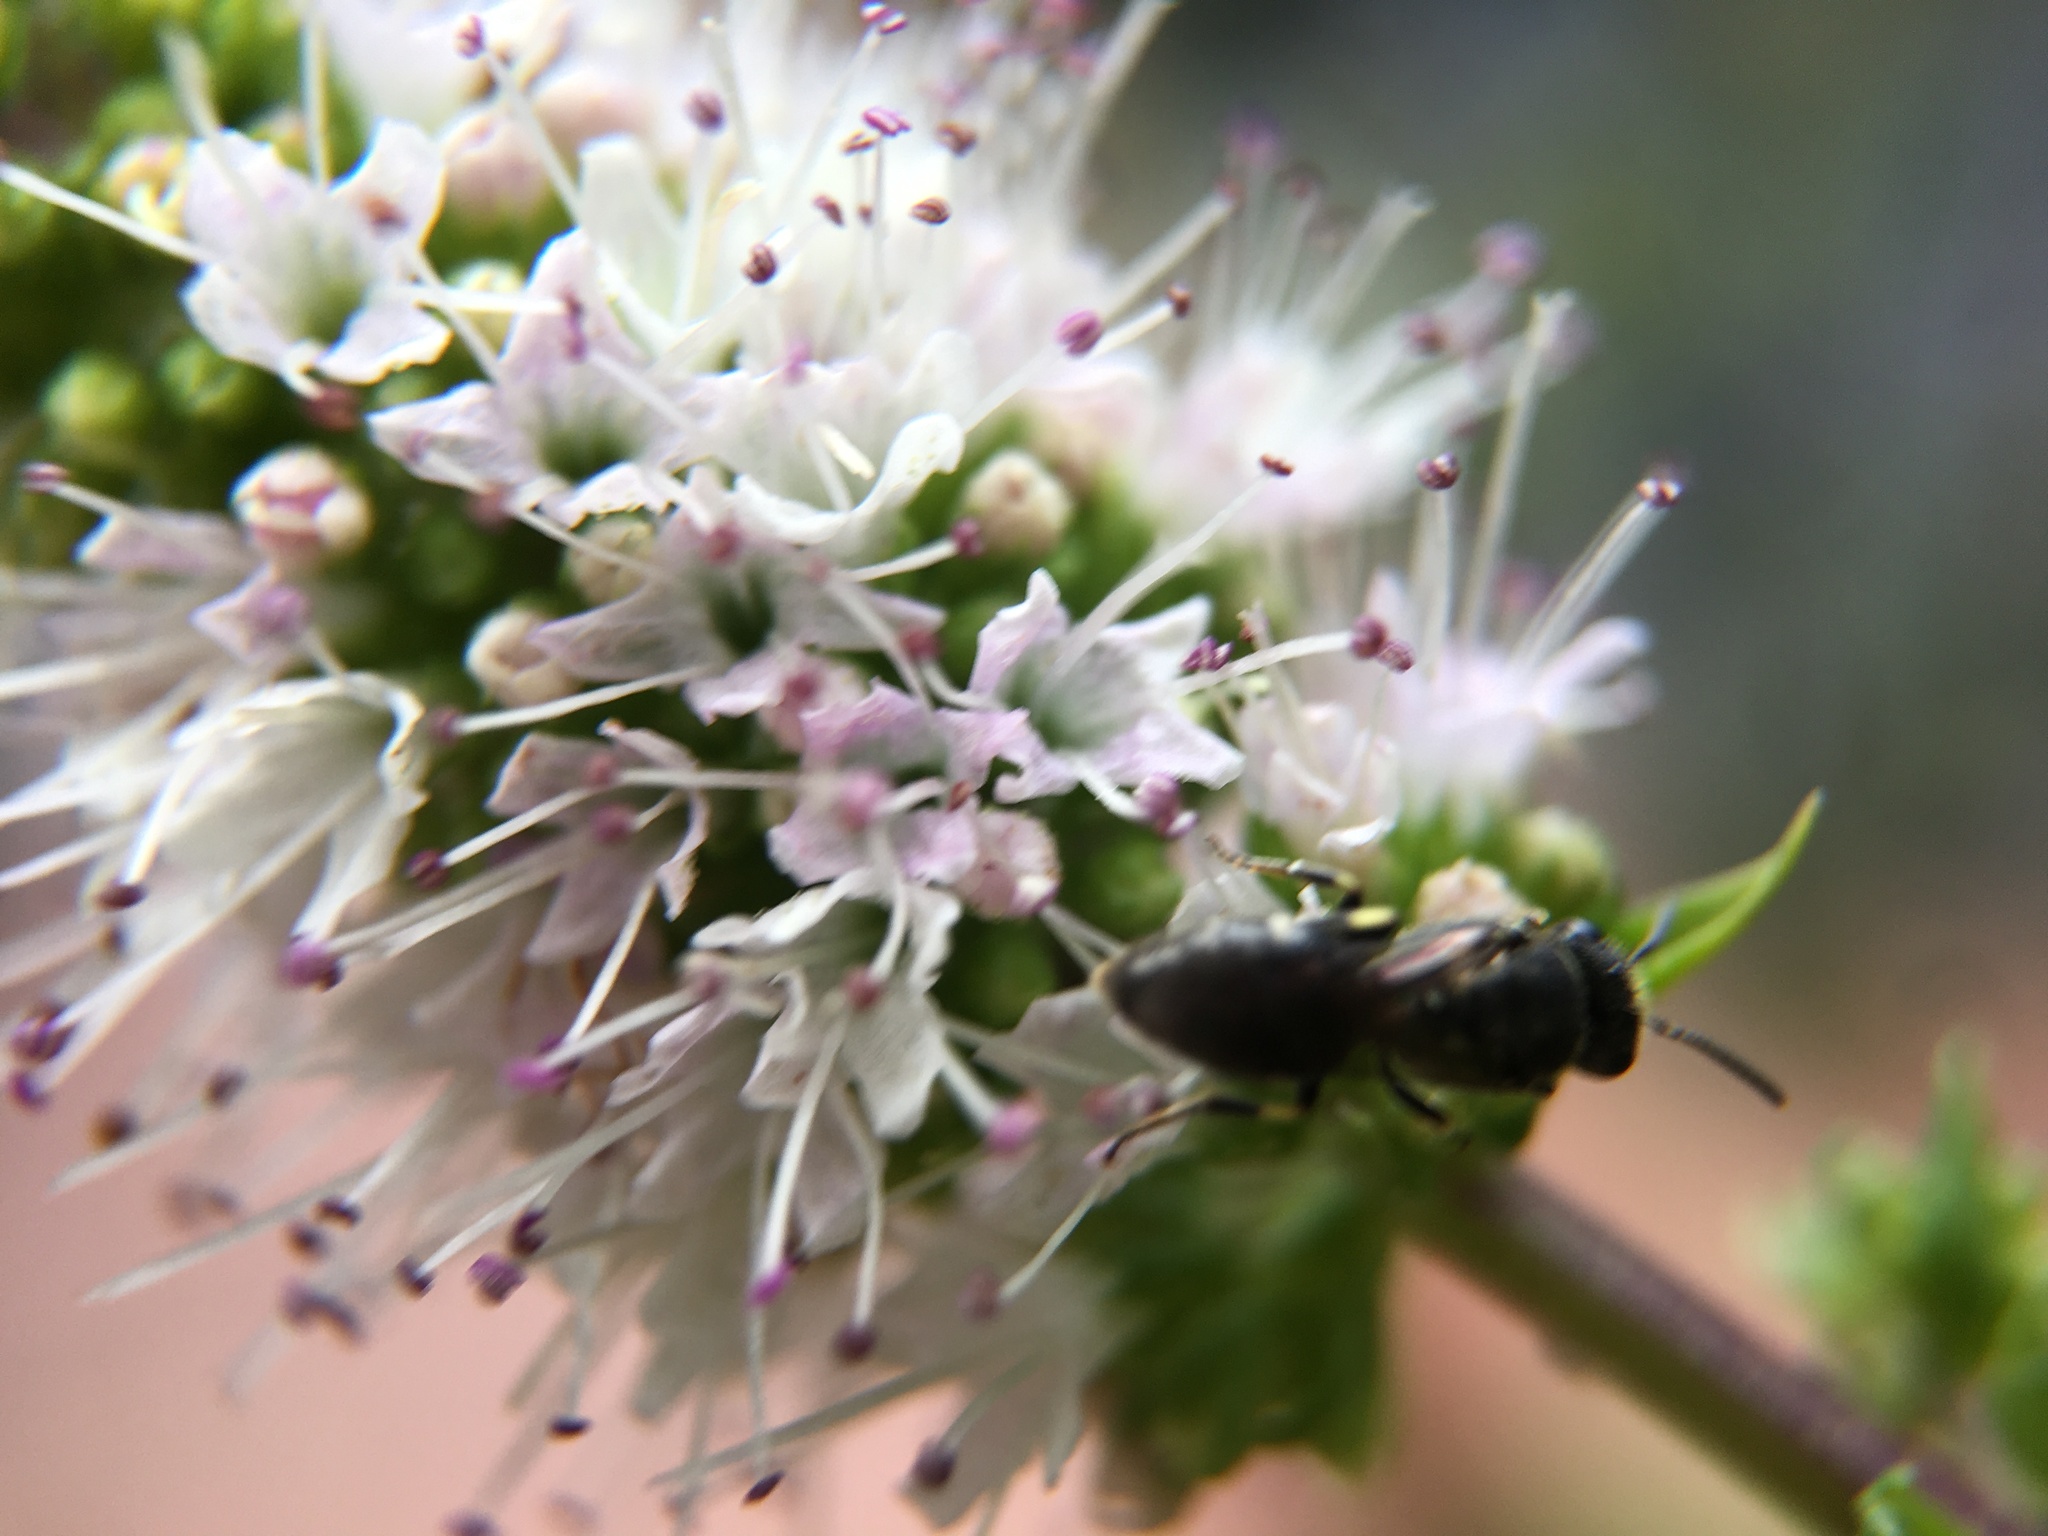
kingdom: Animalia
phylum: Arthropoda
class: Insecta
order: Hymenoptera
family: Colletidae
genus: Hylaeus
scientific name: Hylaeus
